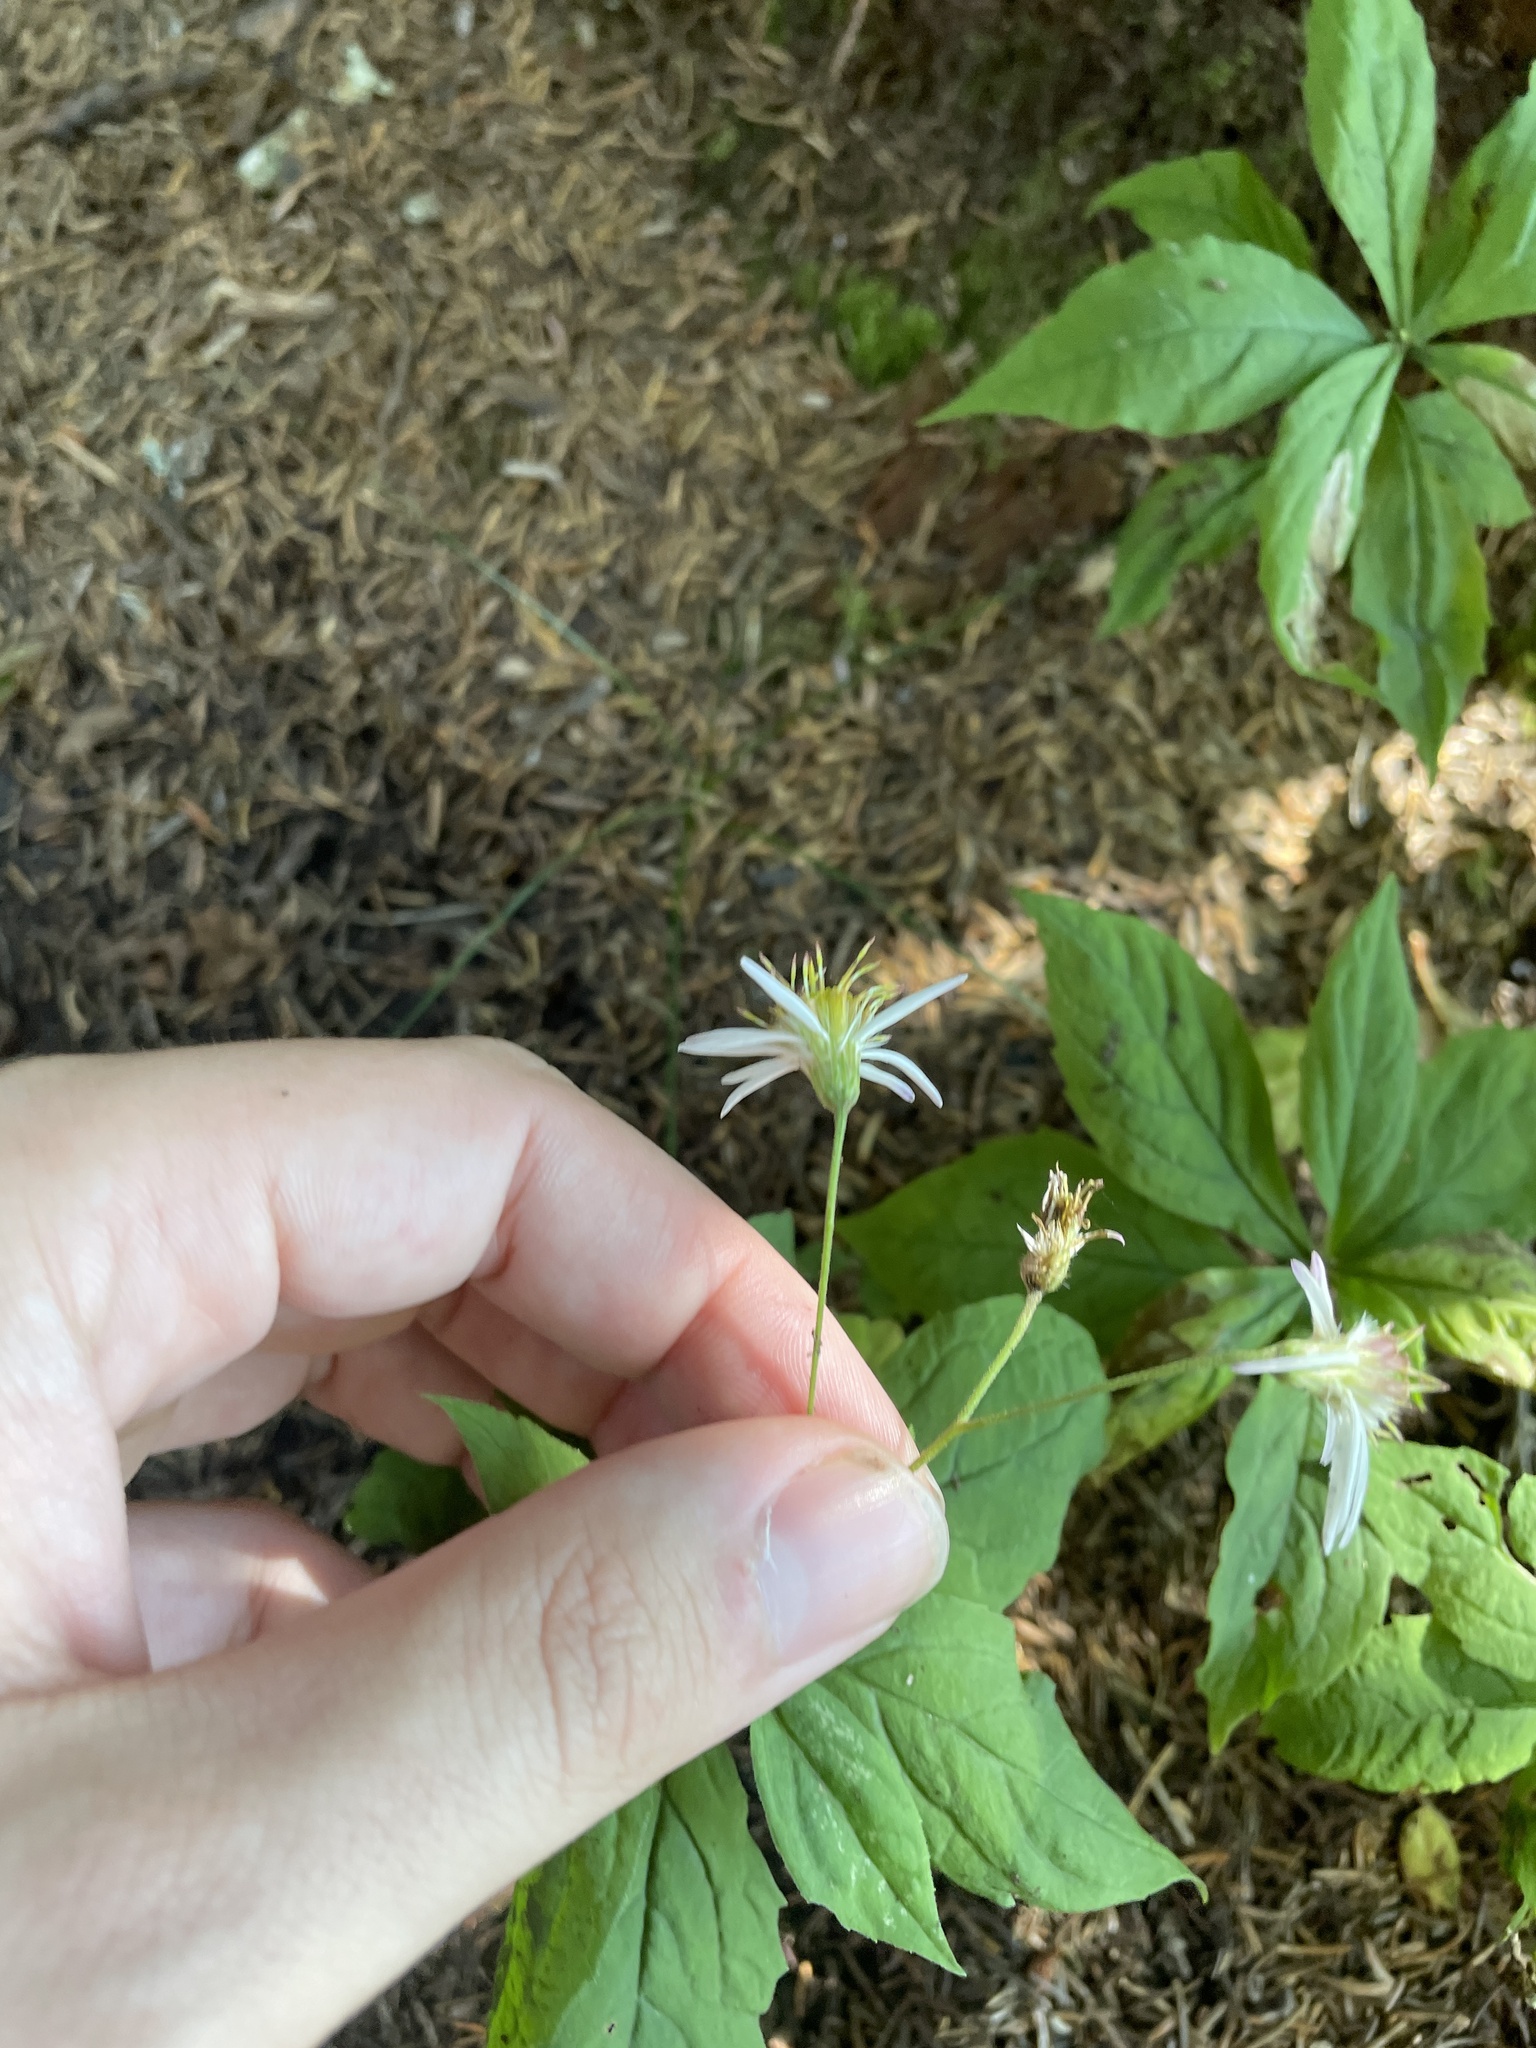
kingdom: Plantae
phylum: Tracheophyta
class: Magnoliopsida
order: Asterales
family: Asteraceae
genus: Oclemena
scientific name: Oclemena acuminata
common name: Mountain aster
